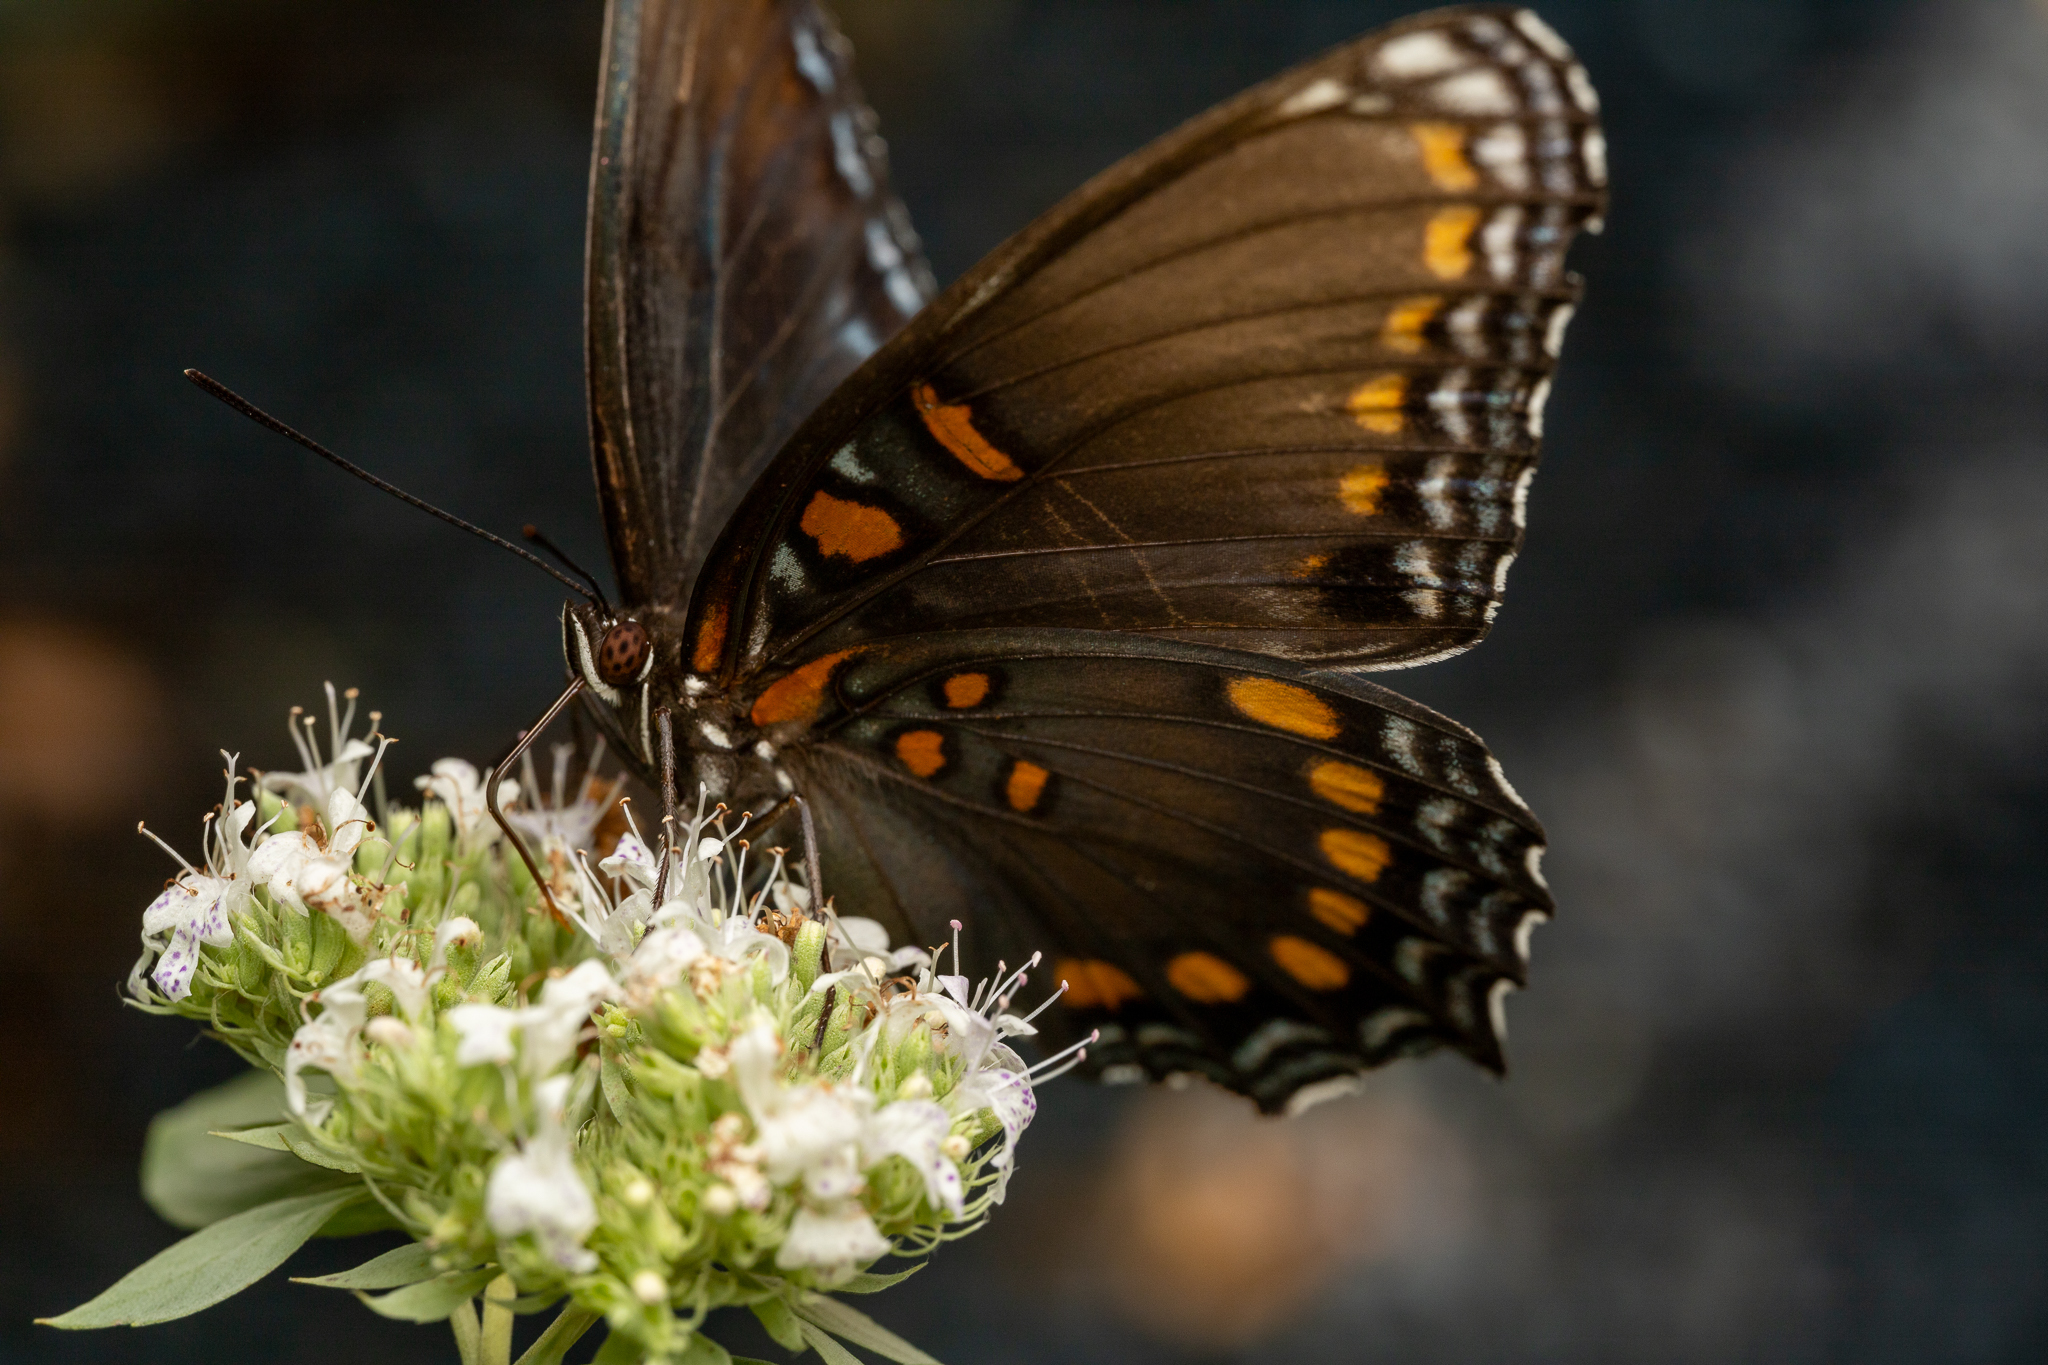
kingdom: Animalia
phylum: Arthropoda
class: Insecta
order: Lepidoptera
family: Nymphalidae
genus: Limenitis
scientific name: Limenitis arthemis
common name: Red-spotted admiral
